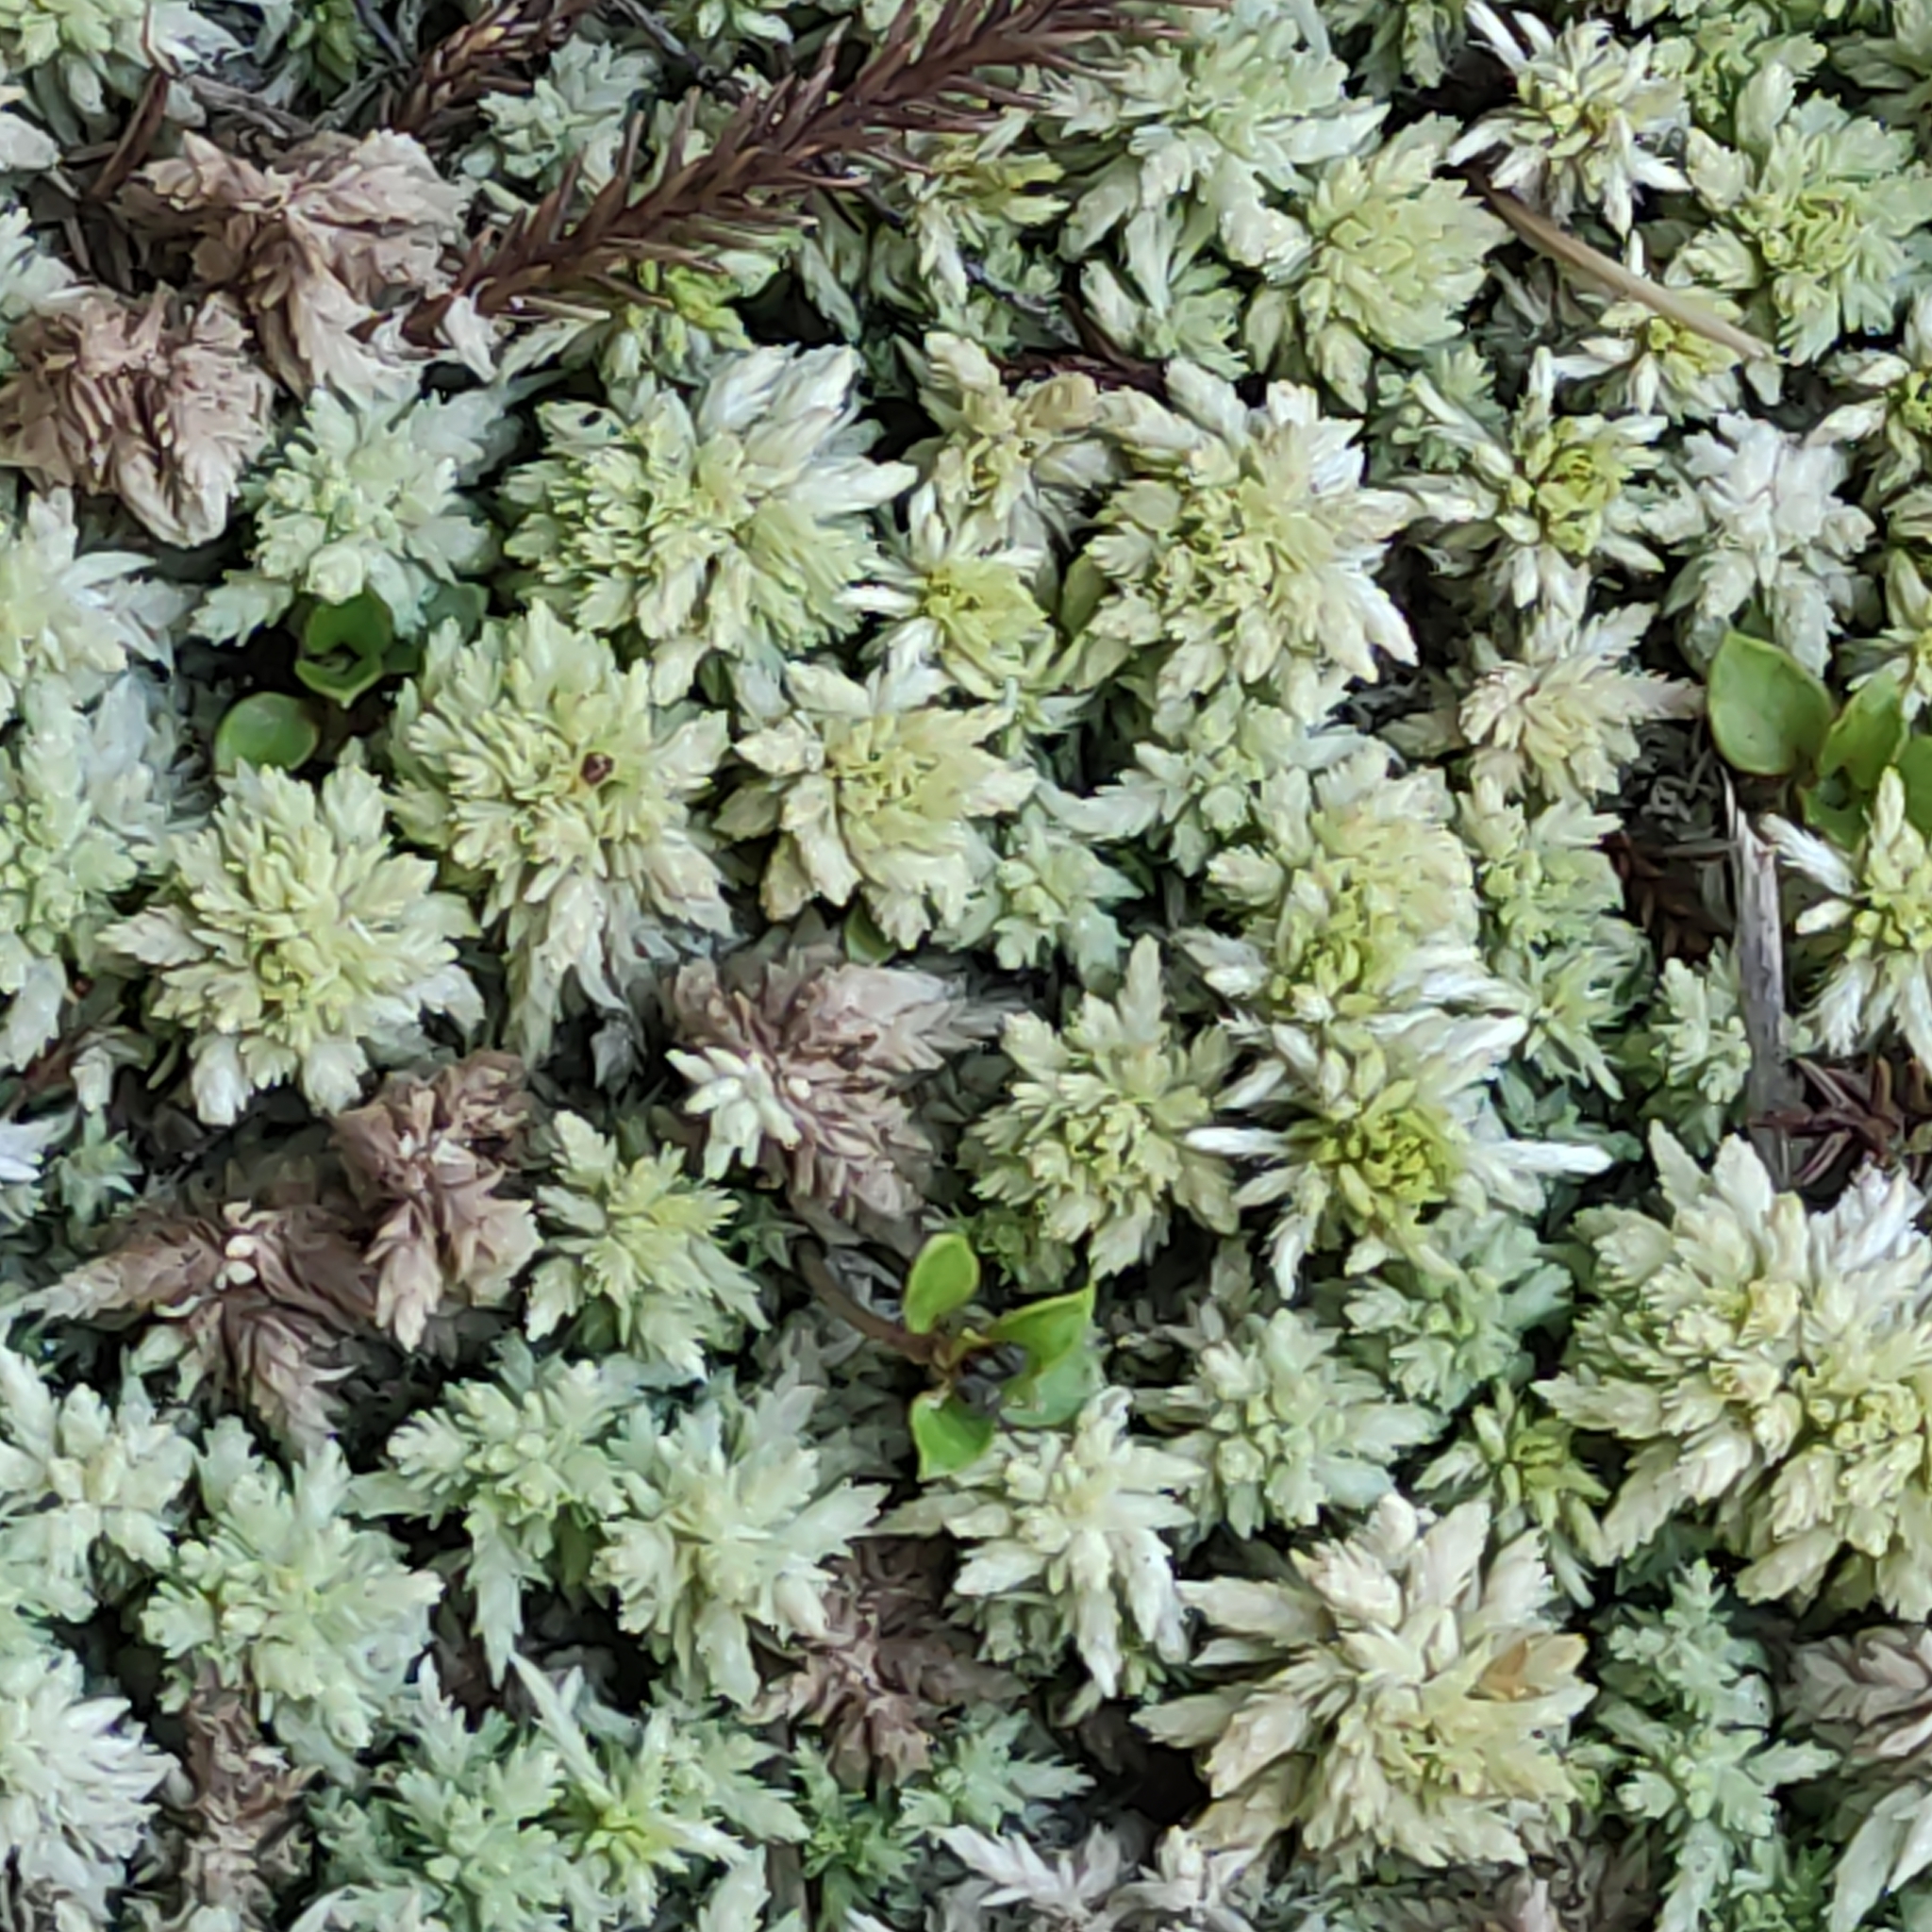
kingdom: Plantae
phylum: Bryophyta
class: Sphagnopsida
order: Sphagnales
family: Sphagnaceae
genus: Sphagnum
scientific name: Sphagnum cristatum
